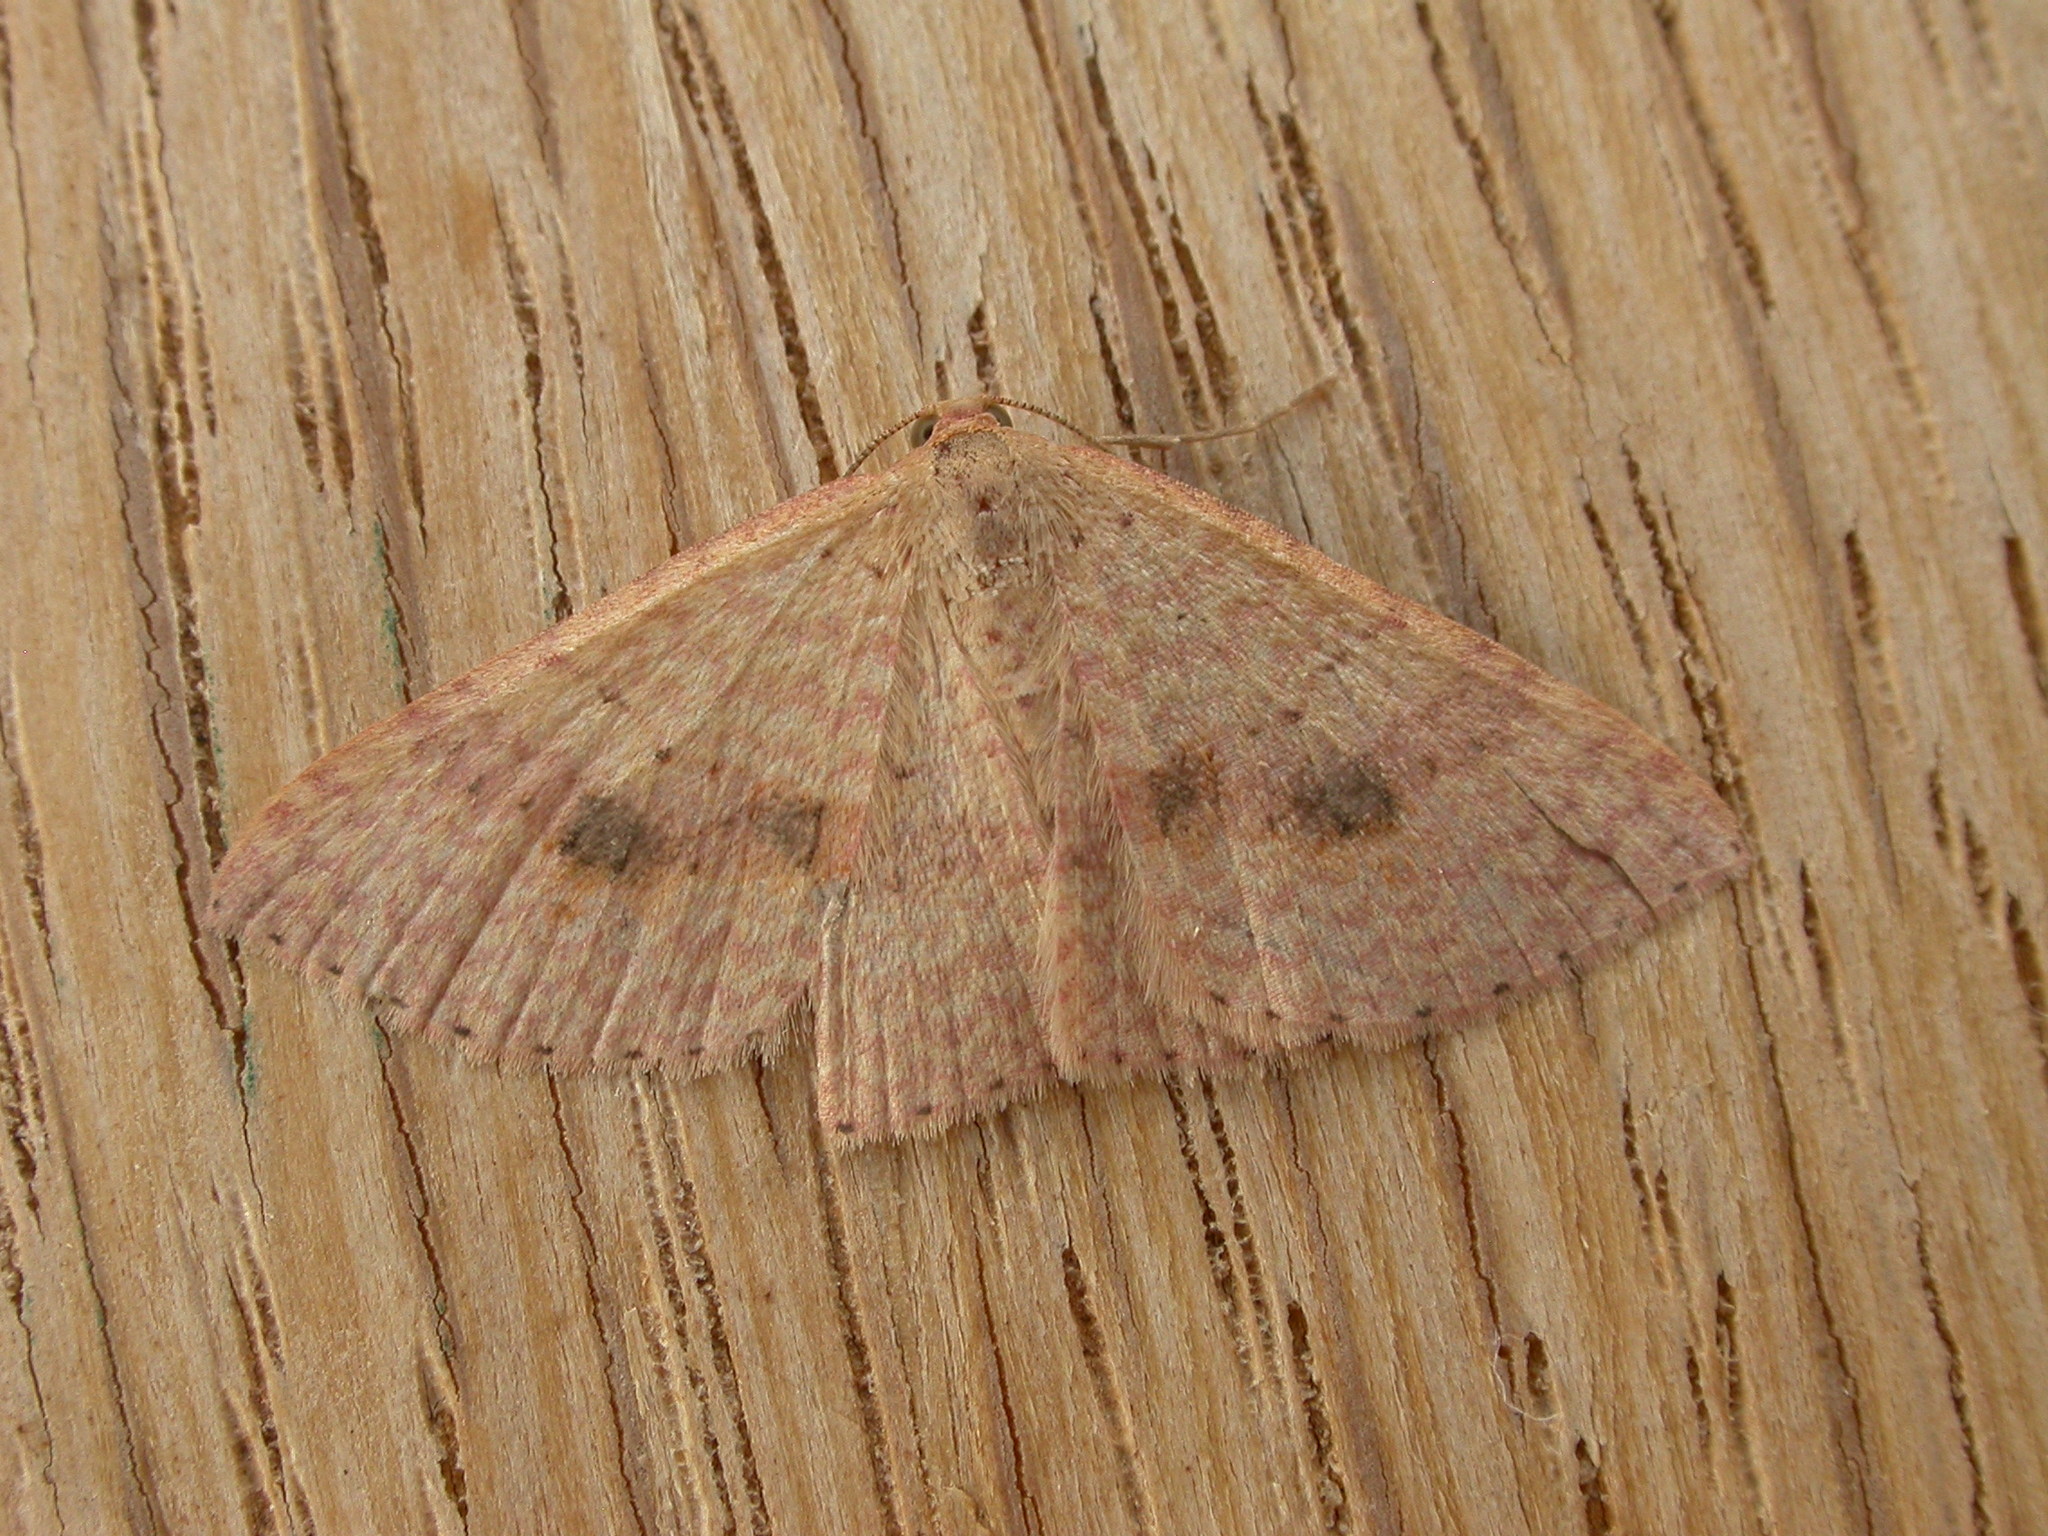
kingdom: Animalia
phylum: Arthropoda
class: Insecta
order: Lepidoptera
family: Geometridae
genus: Epicyme
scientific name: Epicyme rubropunctaria
